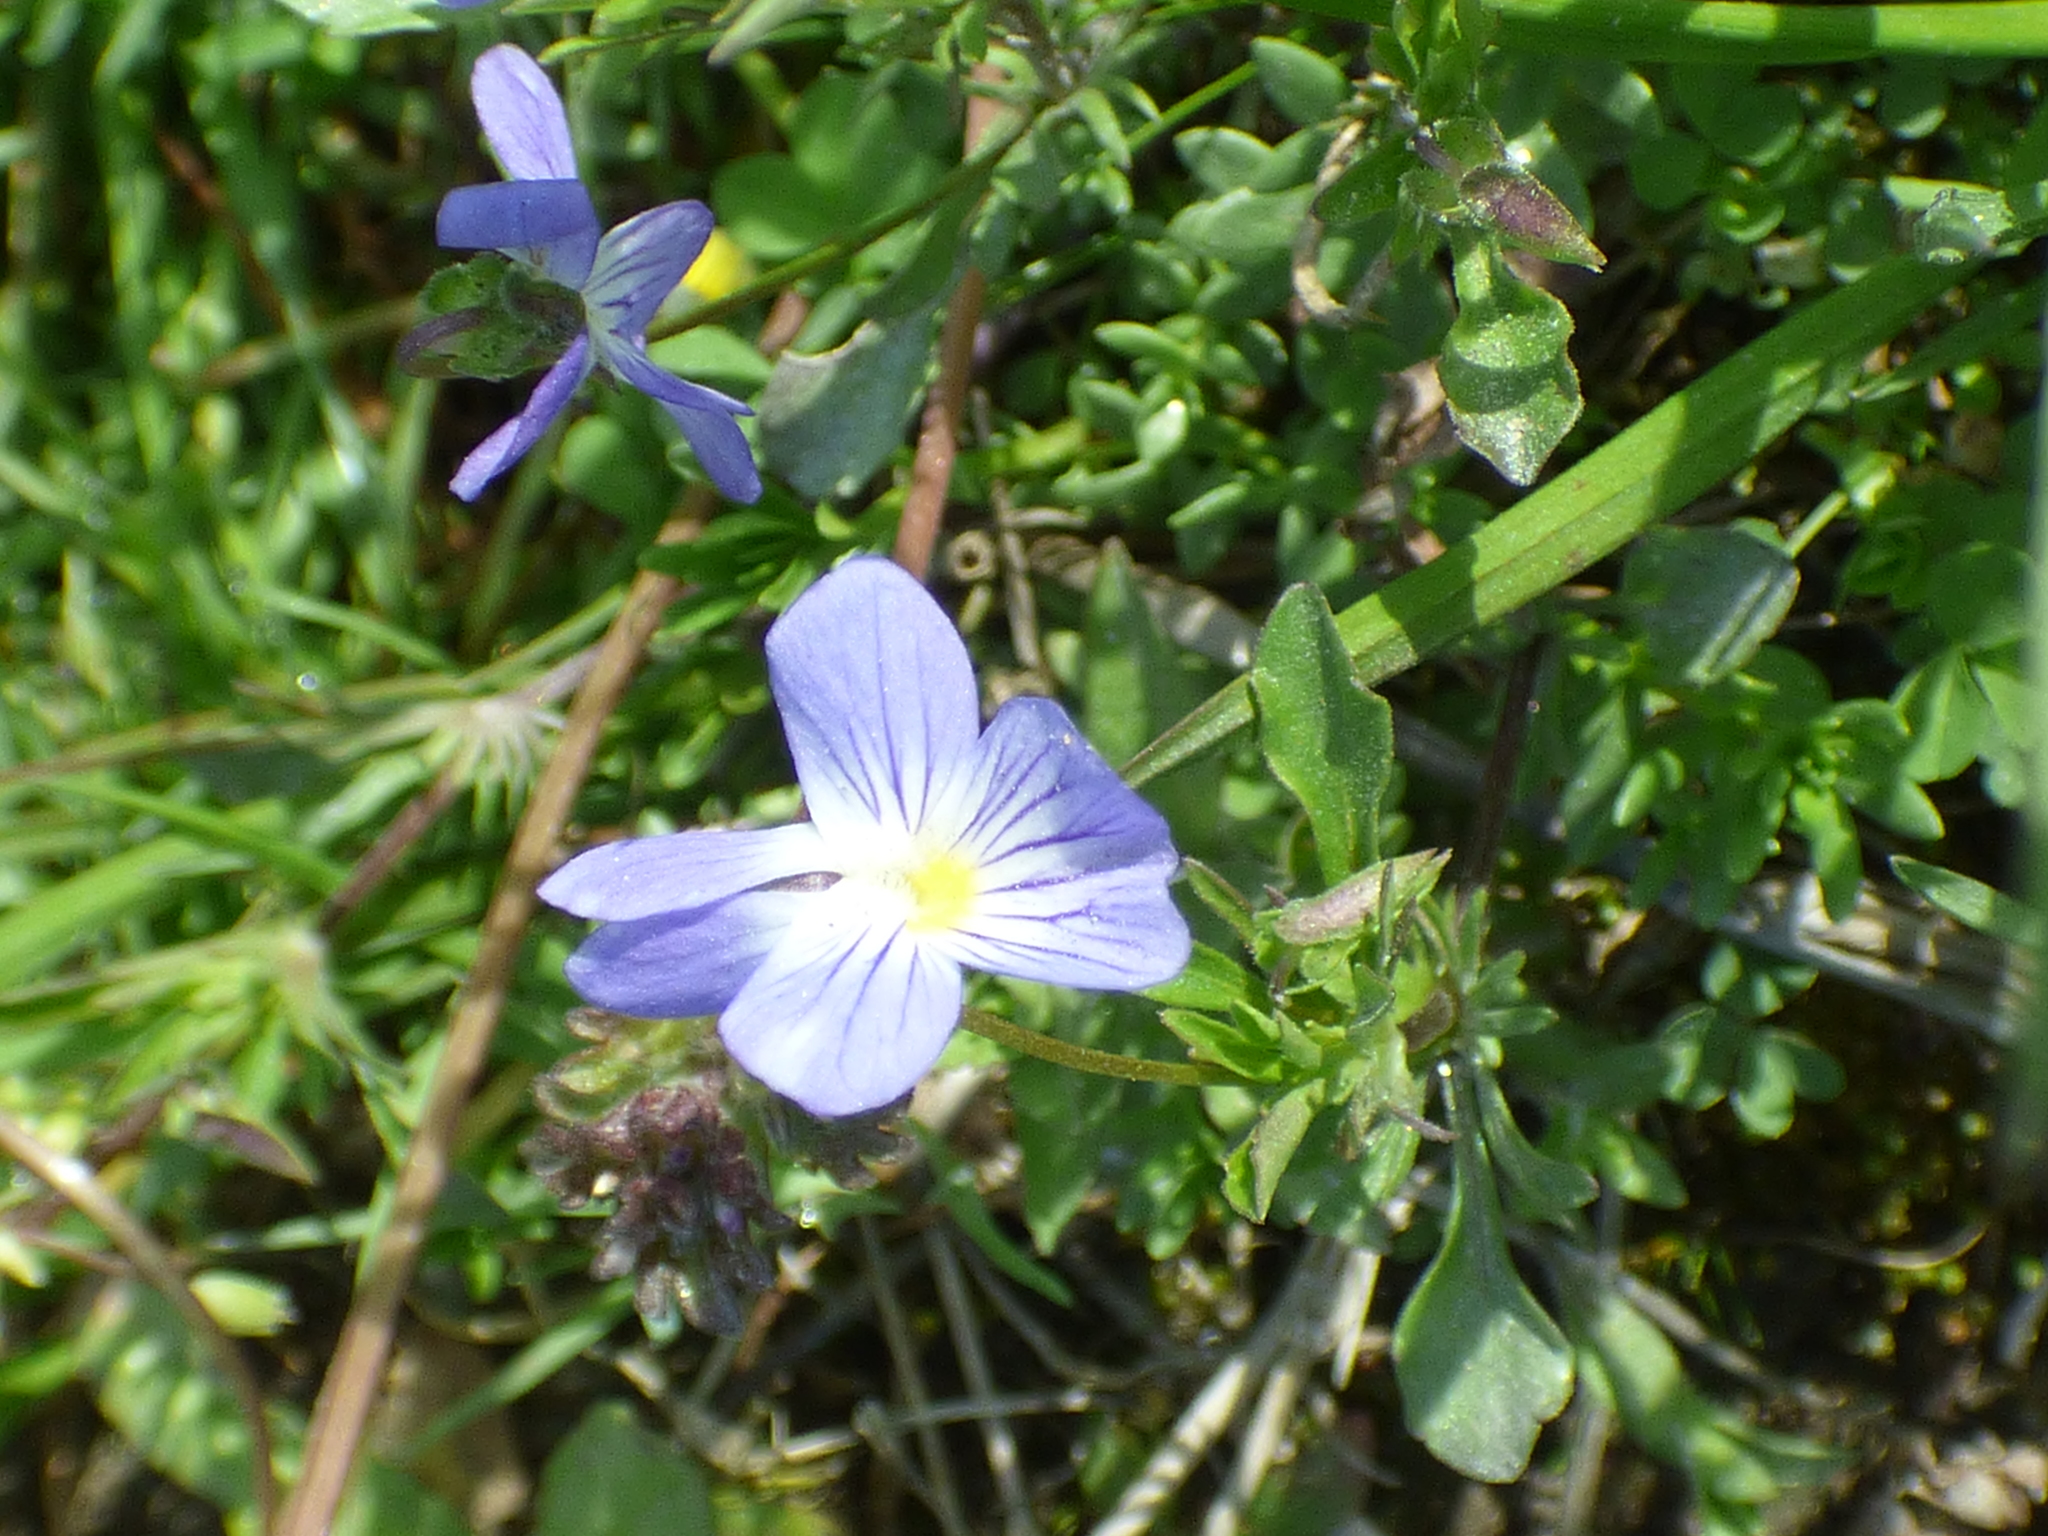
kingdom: Plantae
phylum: Tracheophyta
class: Magnoliopsida
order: Malpighiales
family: Violaceae
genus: Viola
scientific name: Viola rafinesquei
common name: American field pansy
